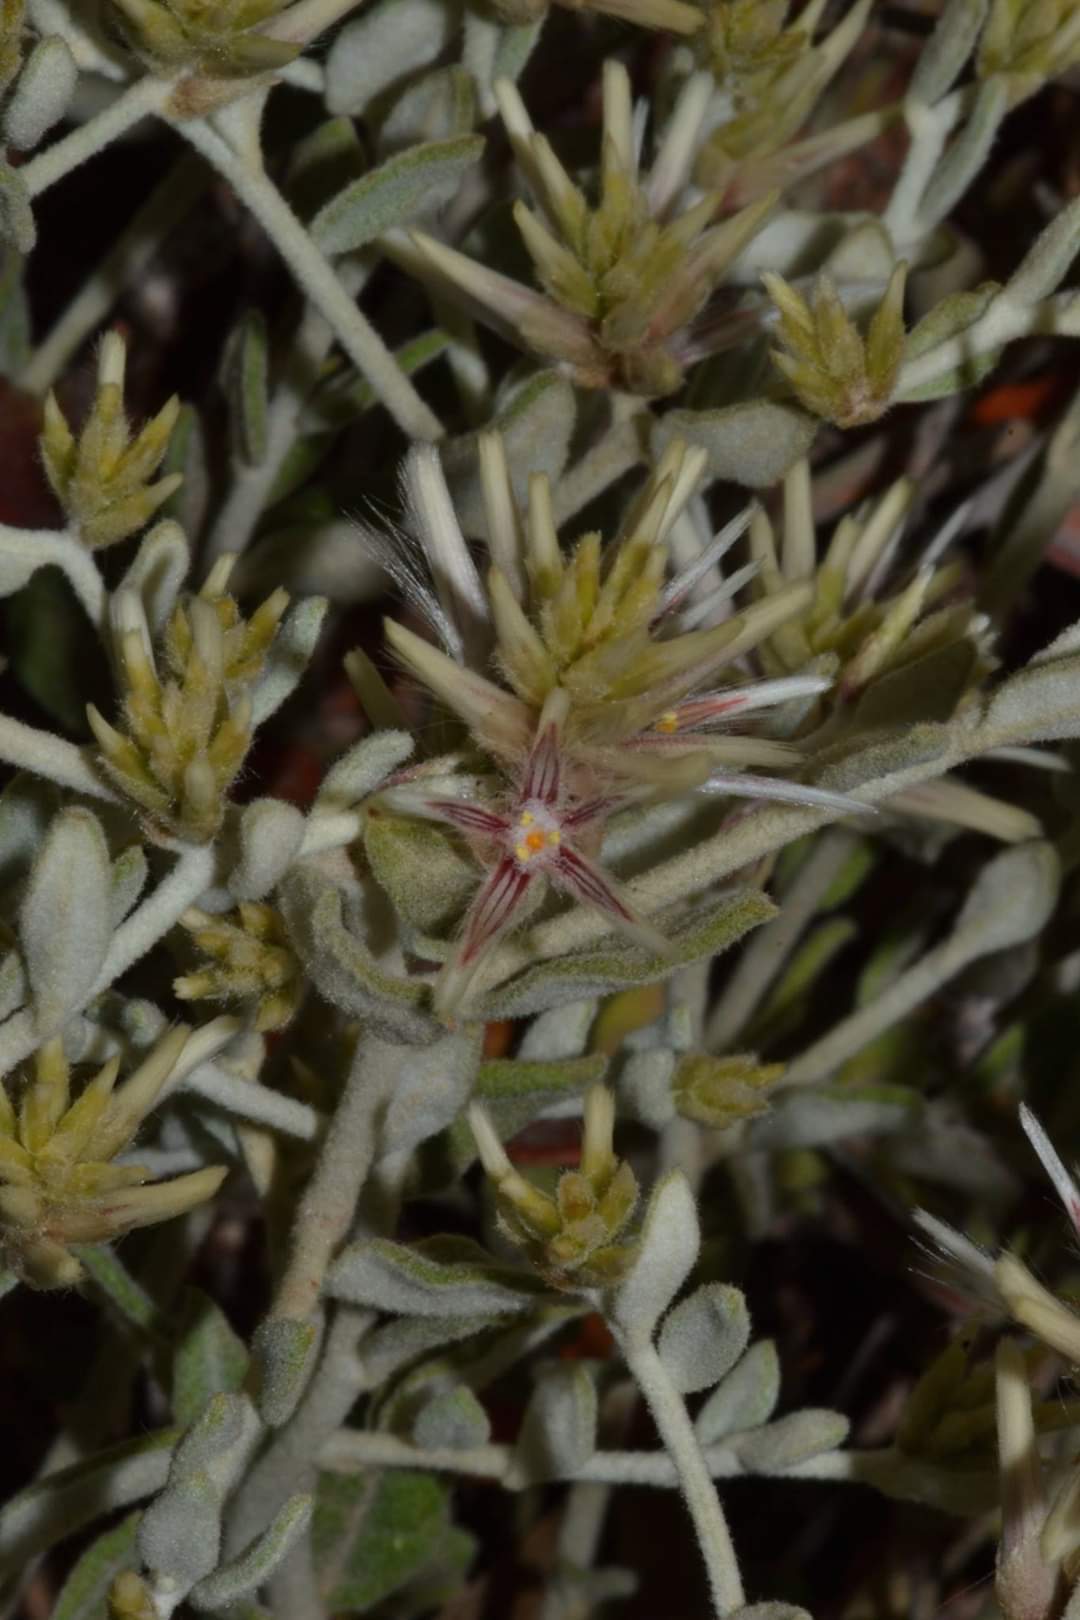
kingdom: Plantae
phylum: Tracheophyta
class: Magnoliopsida
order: Caryophyllales
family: Amaranthaceae
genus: Ptilotus
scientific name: Ptilotus eriotrichus
